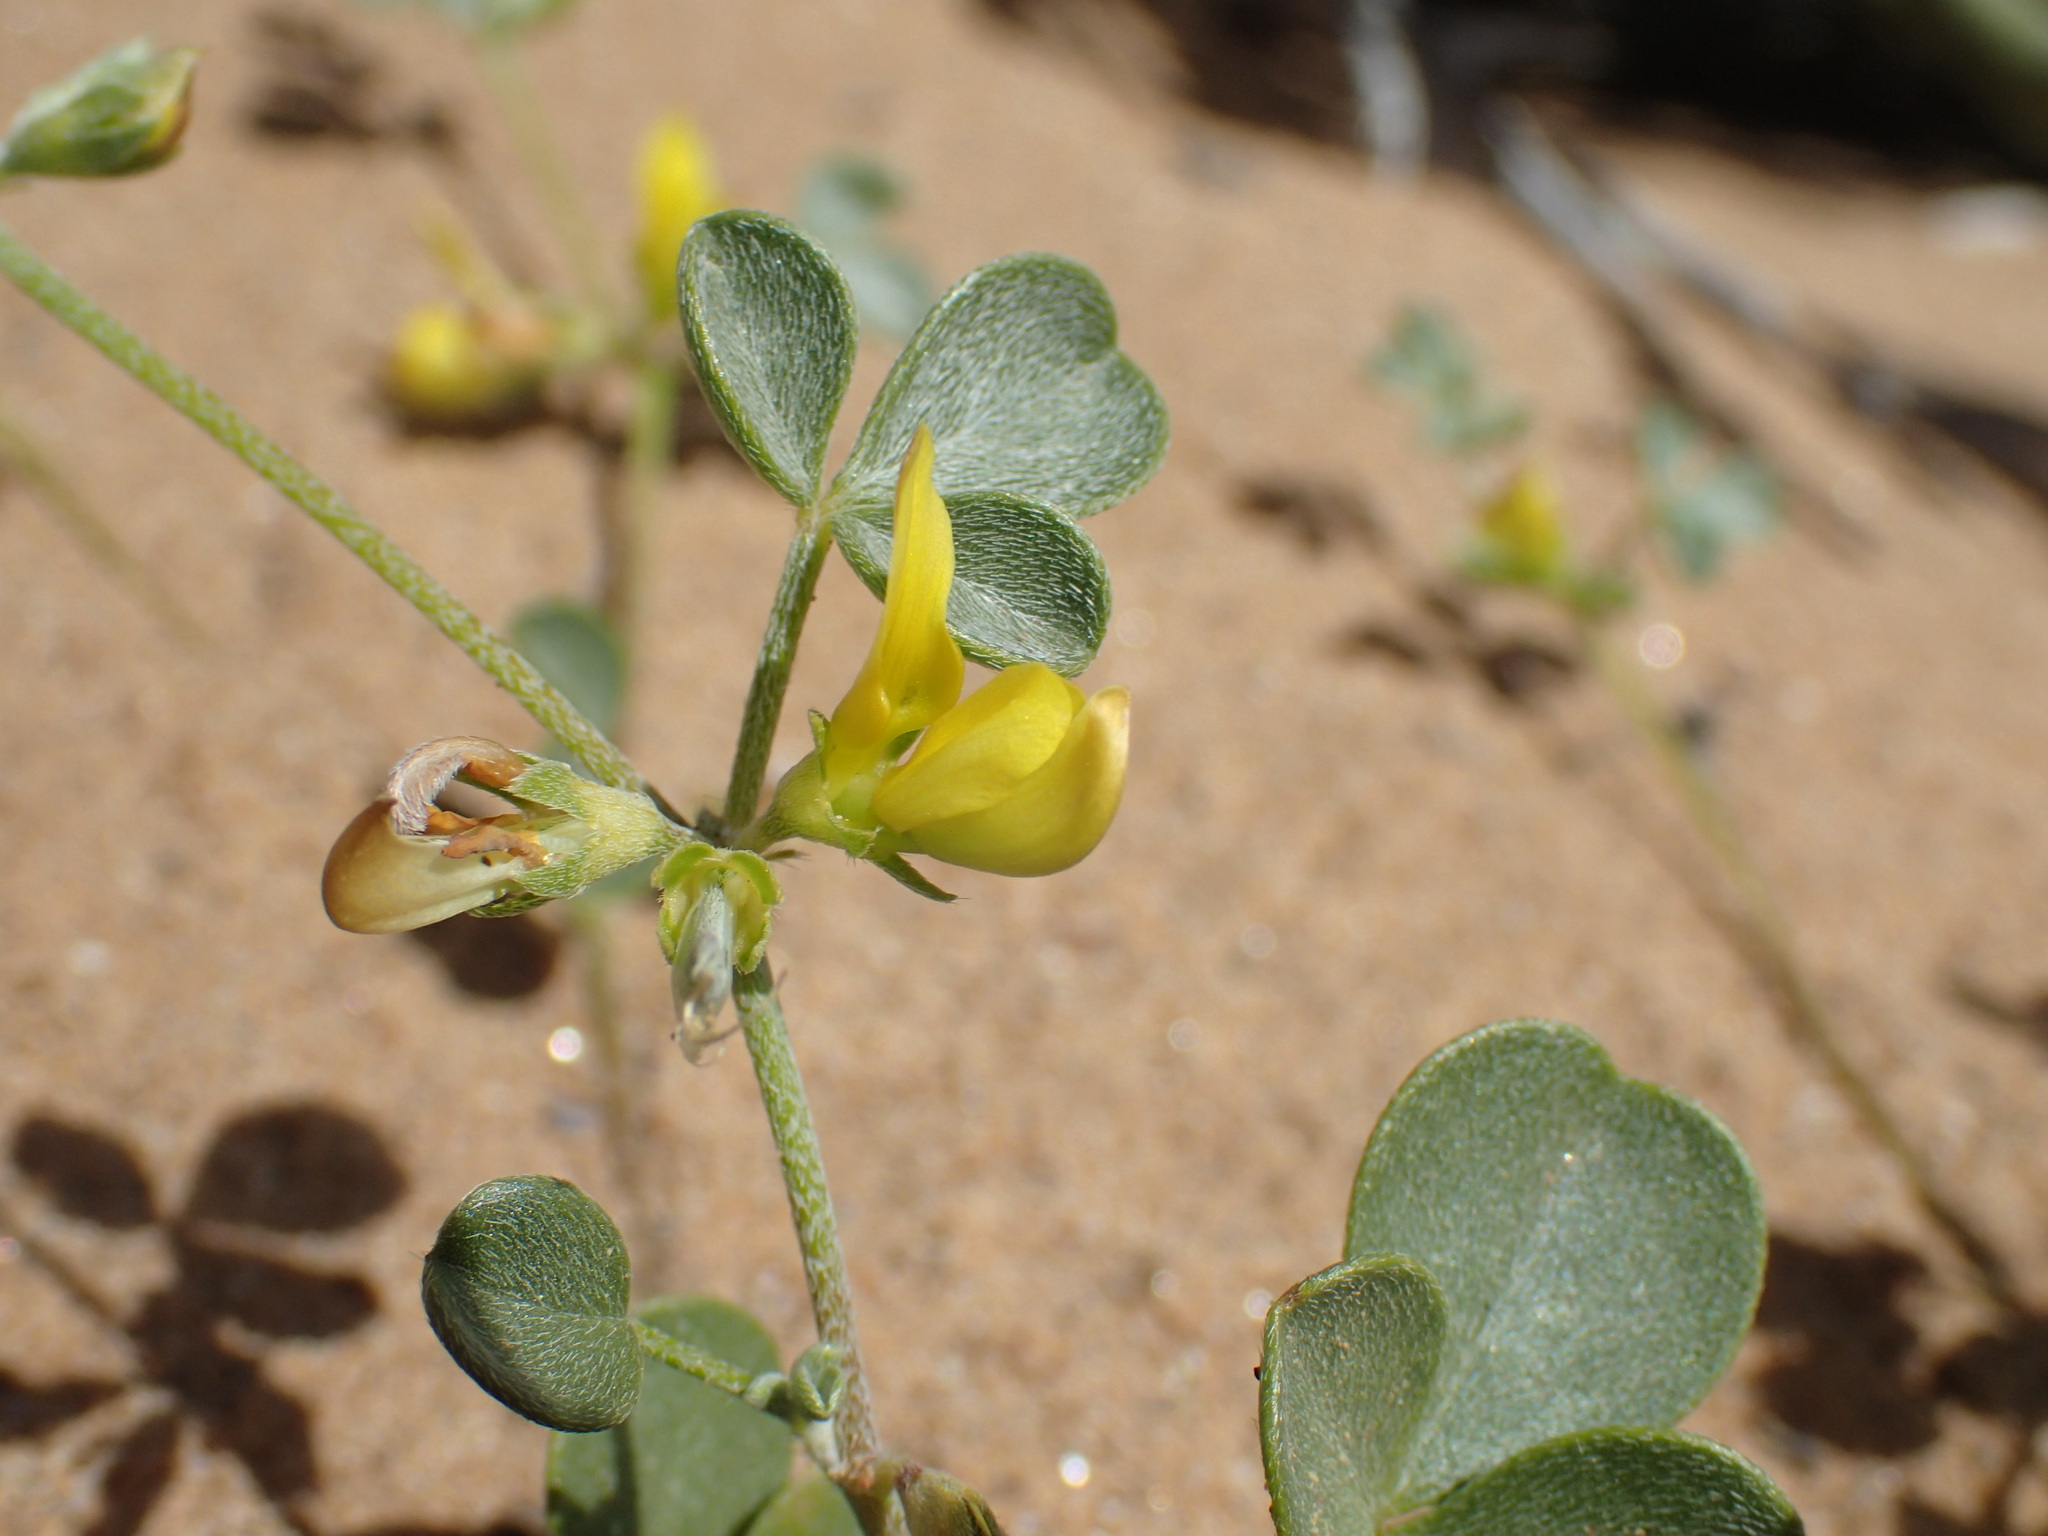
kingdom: Plantae
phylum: Tracheophyta
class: Magnoliopsida
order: Fabales
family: Fabaceae
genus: Lotononis
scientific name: Lotononis strigillosa
